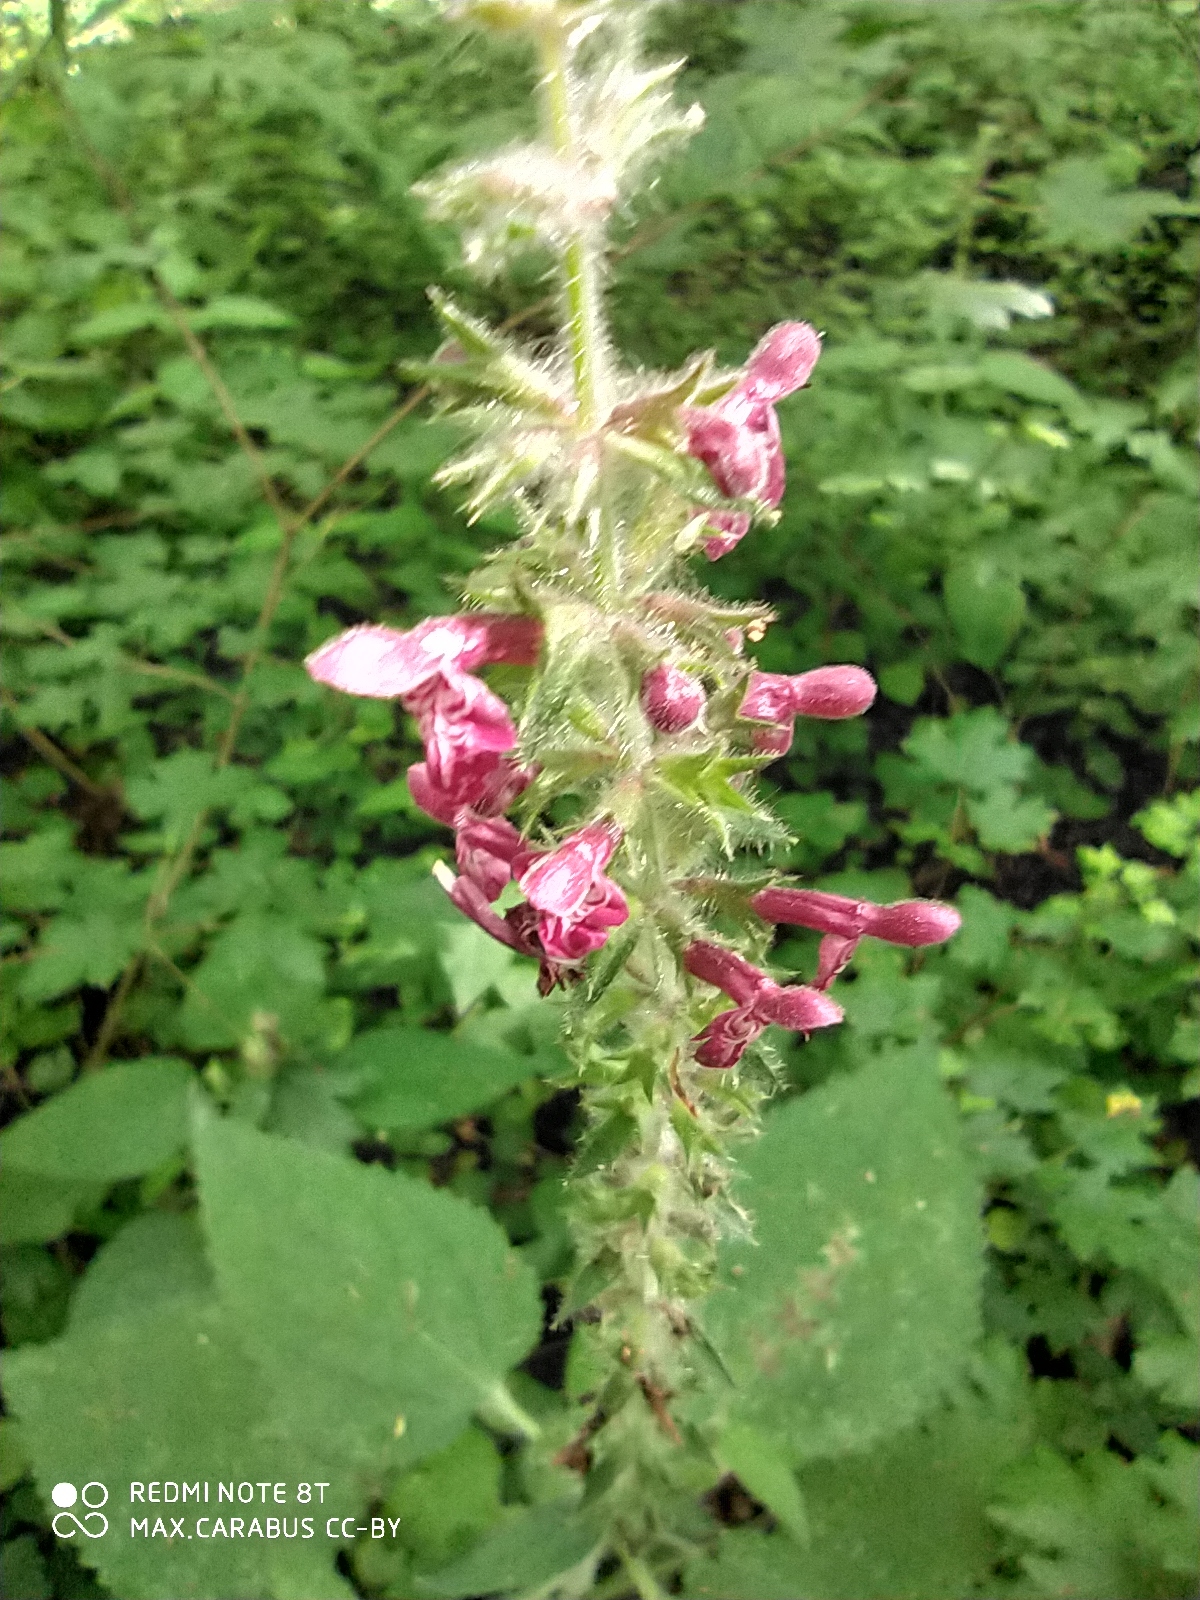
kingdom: Plantae
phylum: Tracheophyta
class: Magnoliopsida
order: Lamiales
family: Lamiaceae
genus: Stachys
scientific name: Stachys sylvatica
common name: Hedge woundwort
